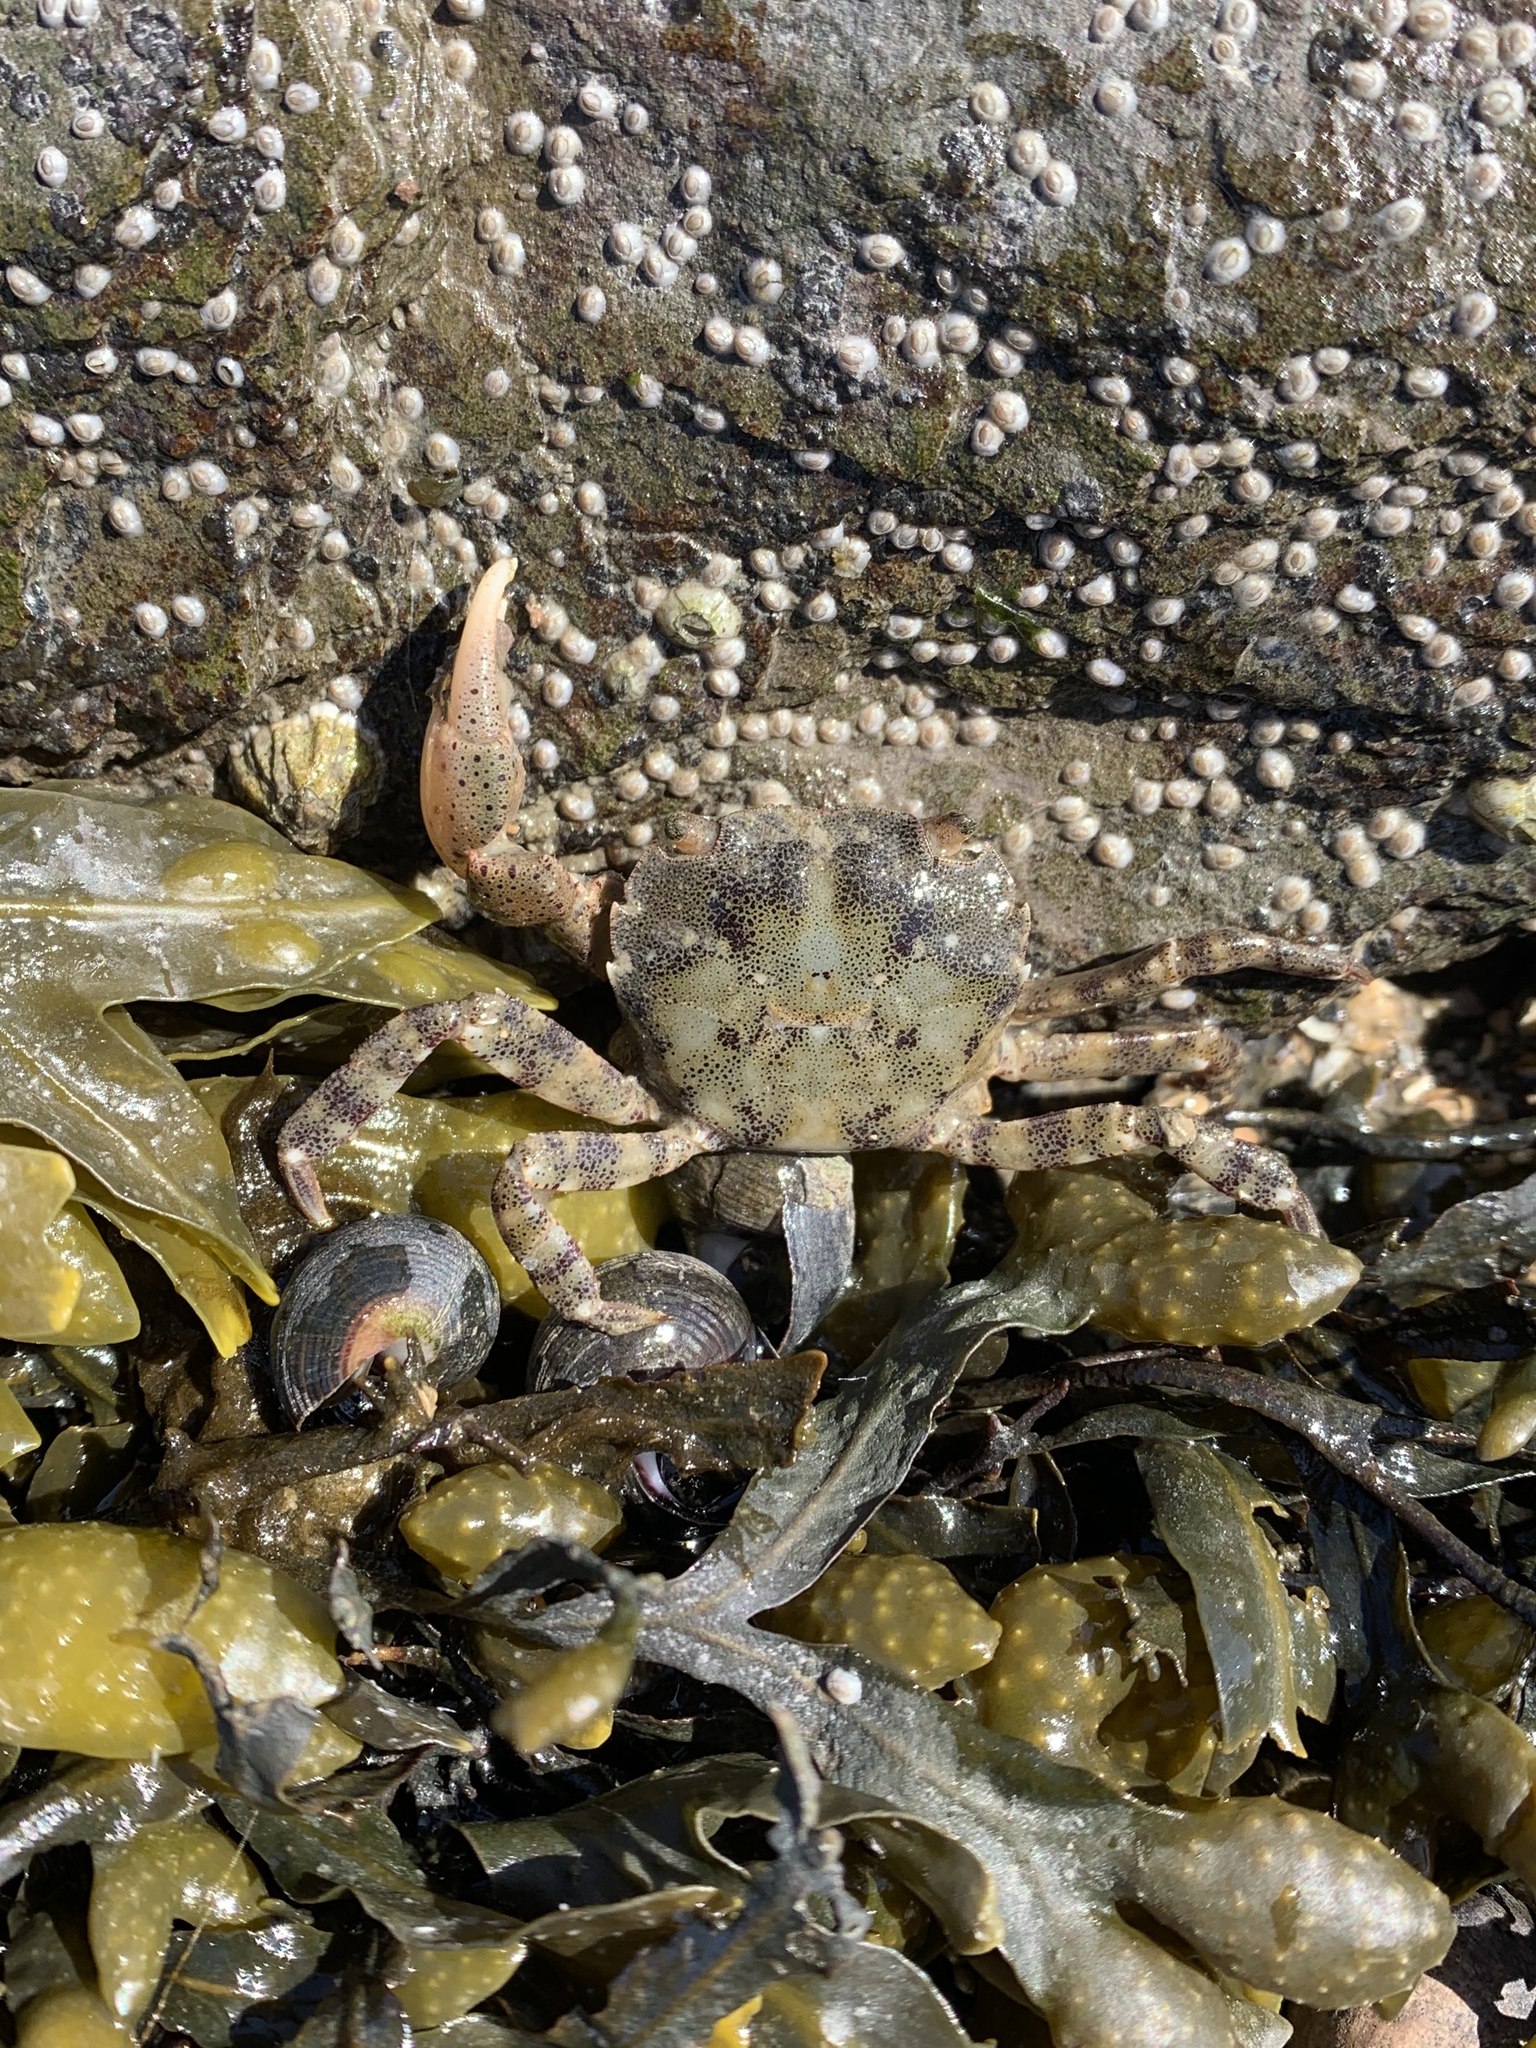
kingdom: Animalia
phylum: Arthropoda
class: Malacostraca
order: Decapoda
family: Varunidae
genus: Hemigrapsus
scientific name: Hemigrapsus sanguineus
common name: Asian shore crab
